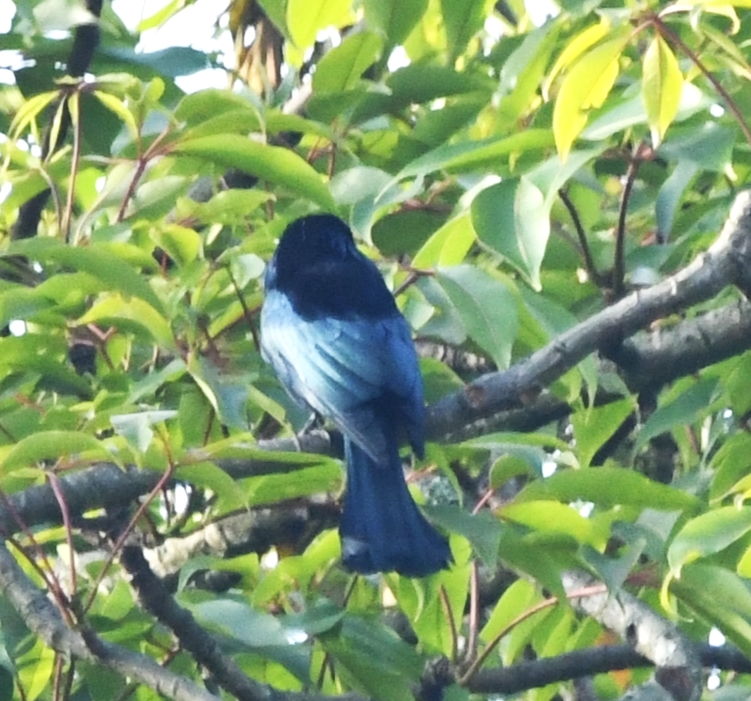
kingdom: Animalia
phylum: Chordata
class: Aves
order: Passeriformes
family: Dicruridae
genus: Dicrurus
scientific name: Dicrurus hottentottus
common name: Hair-crested drongo
